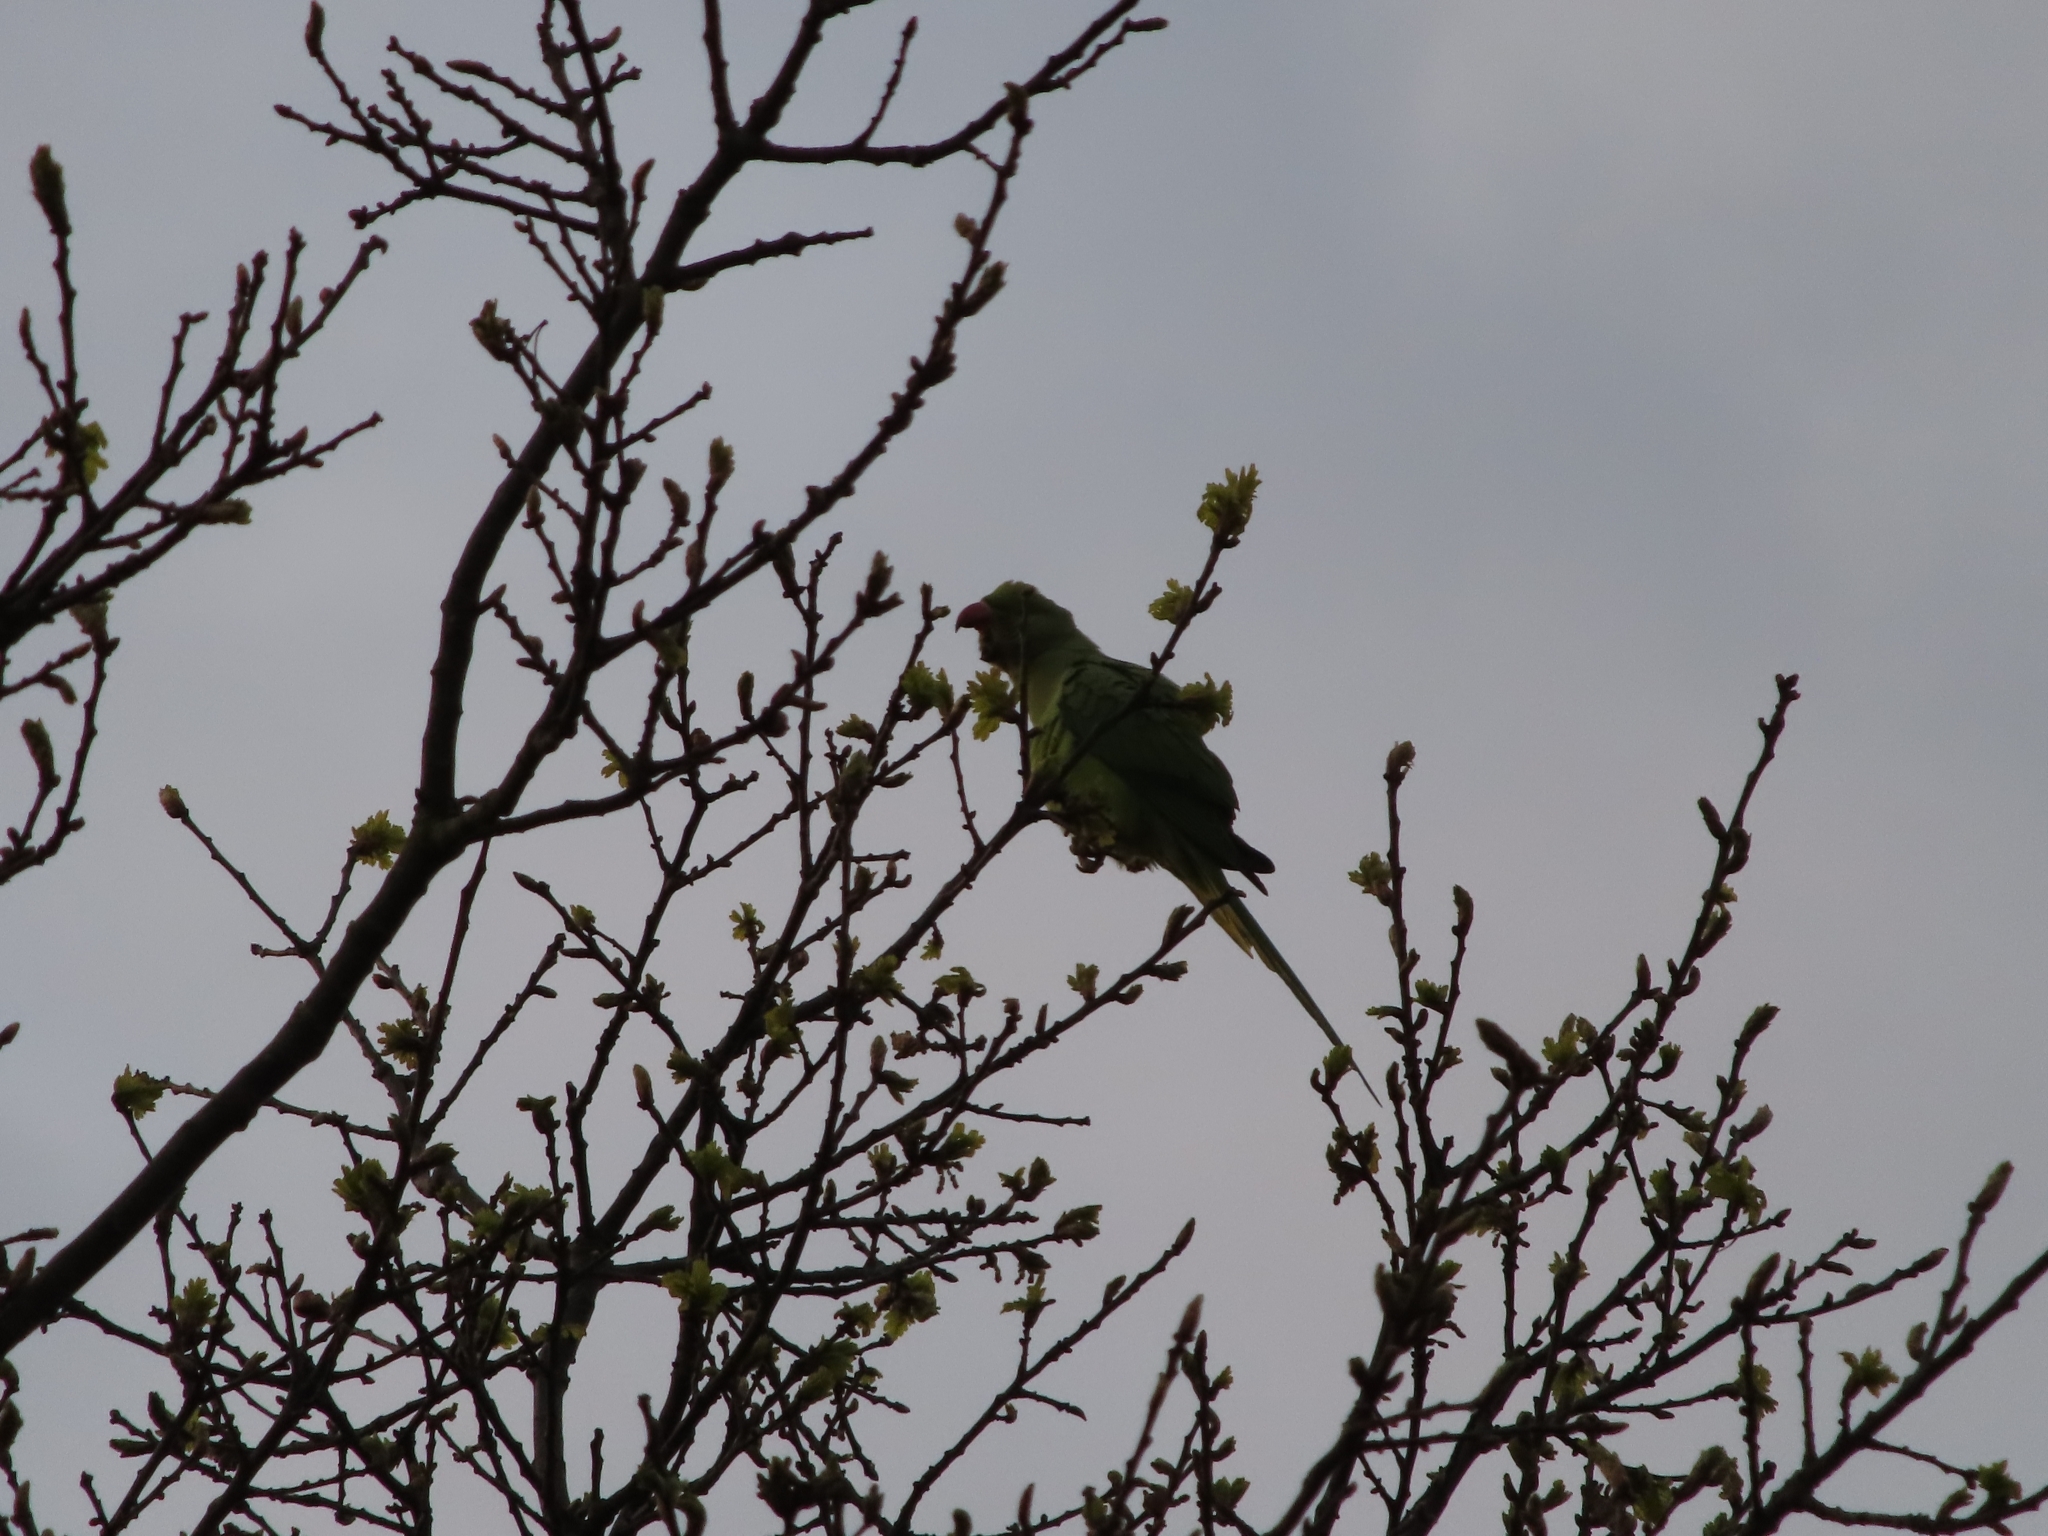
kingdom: Animalia
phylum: Chordata
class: Aves
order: Psittaciformes
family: Psittacidae
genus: Psittacula
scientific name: Psittacula krameri
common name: Rose-ringed parakeet
